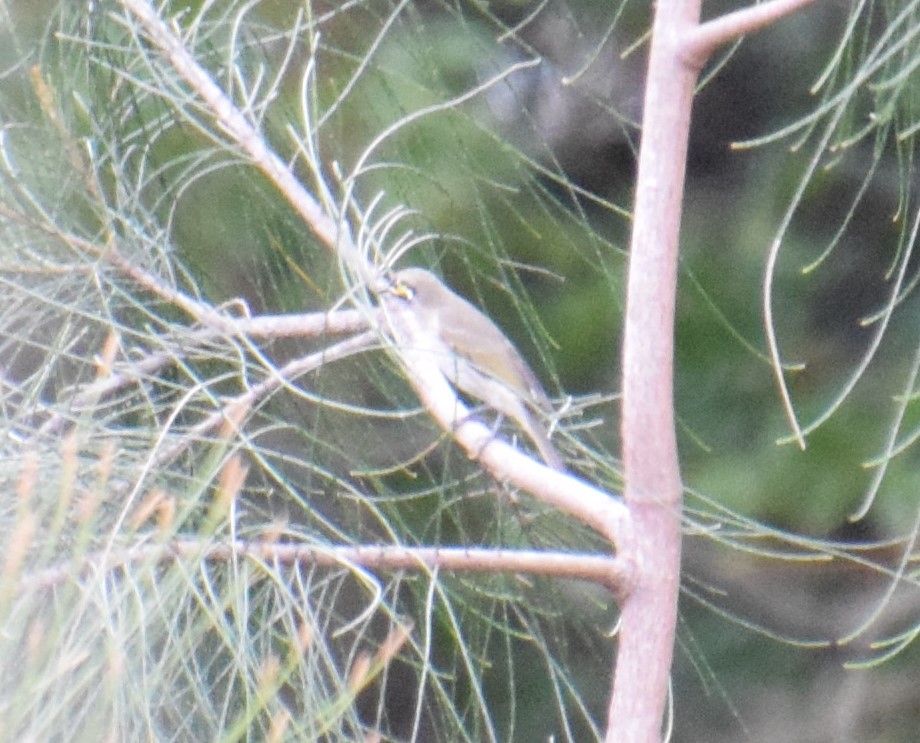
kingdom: Animalia
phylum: Chordata
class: Aves
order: Passeriformes
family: Meliphagidae
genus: Caligavis
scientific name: Caligavis chrysops
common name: Yellow-faced honeyeater
